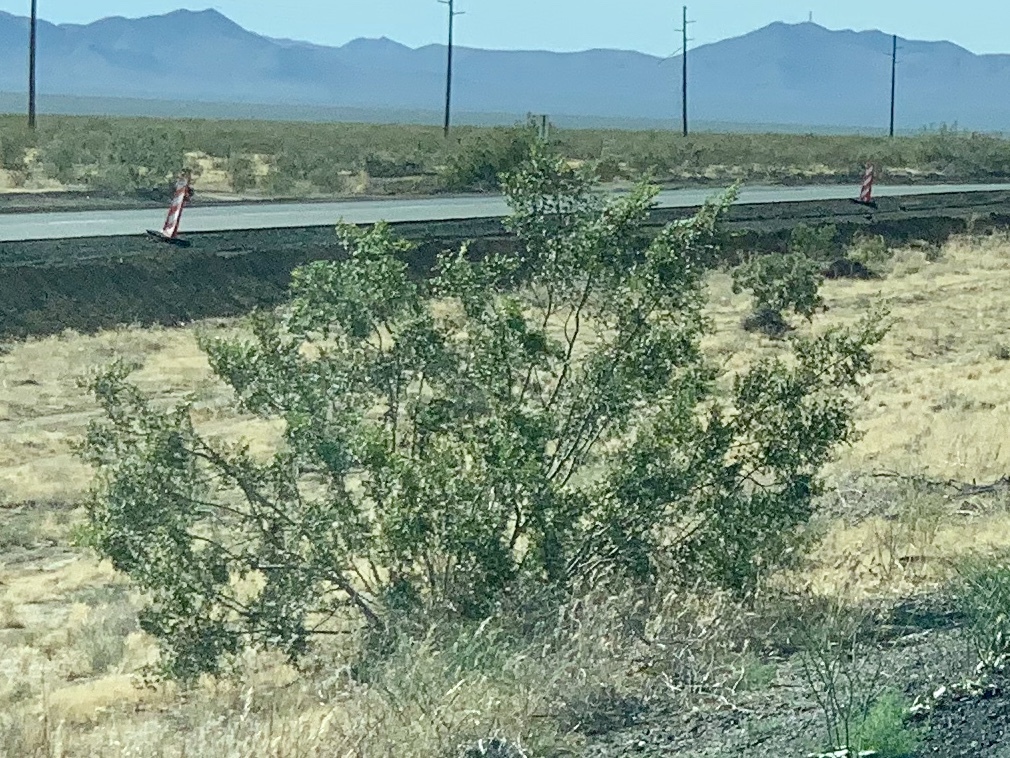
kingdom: Plantae
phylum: Tracheophyta
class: Magnoliopsida
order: Zygophyllales
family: Zygophyllaceae
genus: Larrea
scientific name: Larrea tridentata
